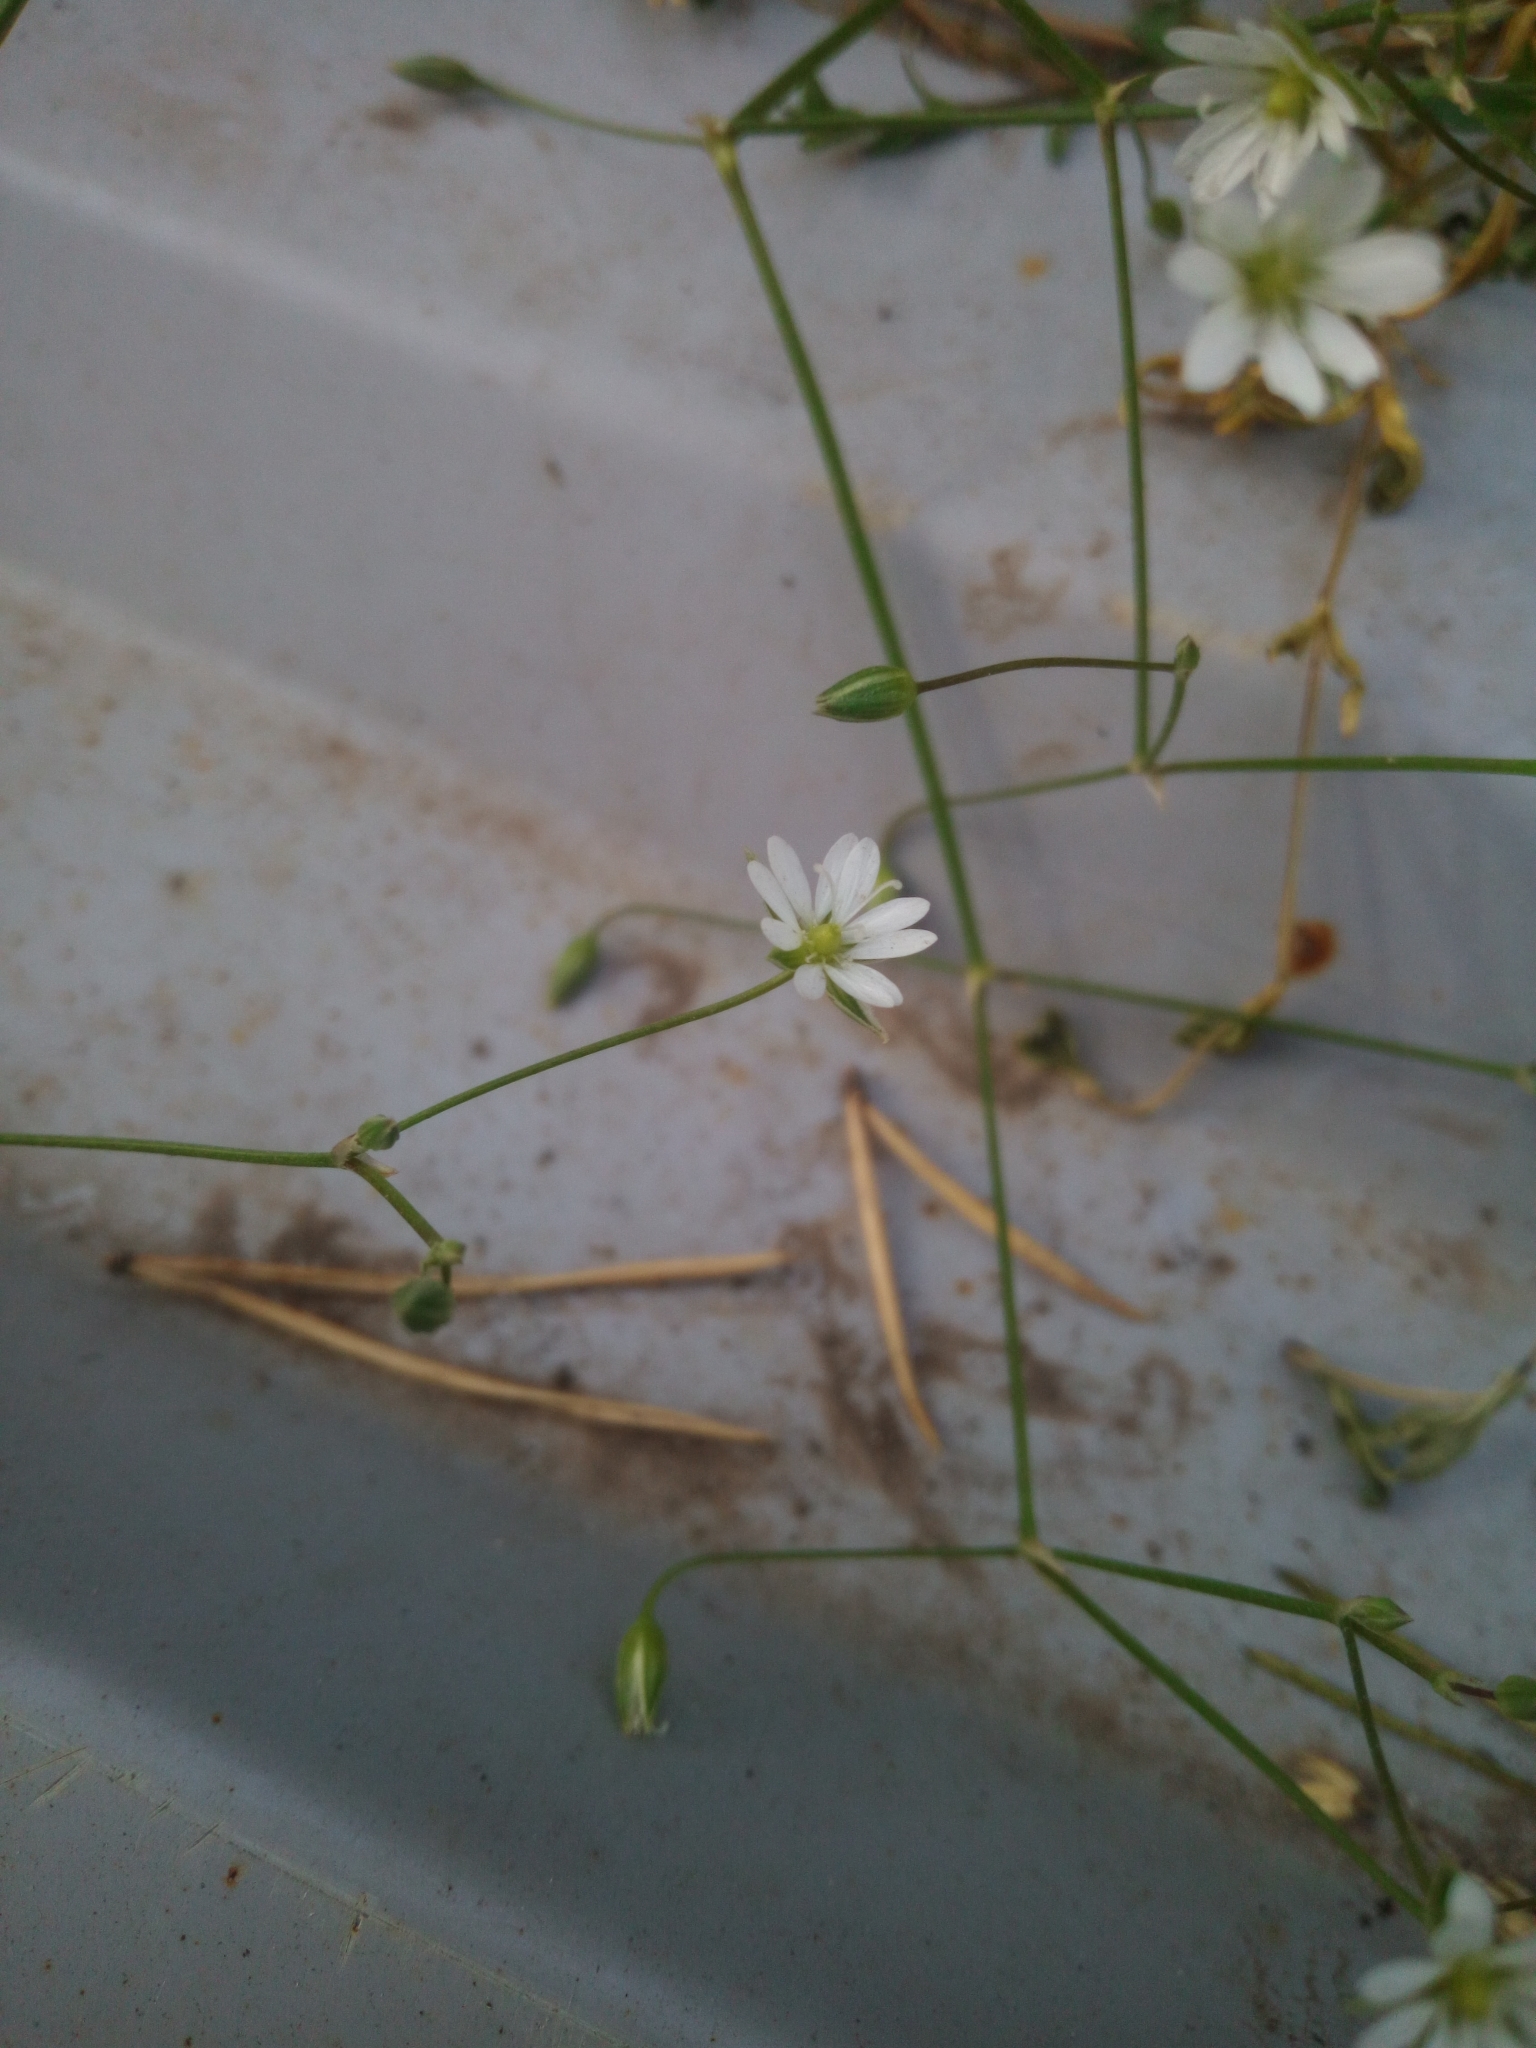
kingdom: Plantae
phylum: Tracheophyta
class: Magnoliopsida
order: Caryophyllales
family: Caryophyllaceae
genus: Stellaria
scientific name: Stellaria graminea
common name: Grass-like starwort
